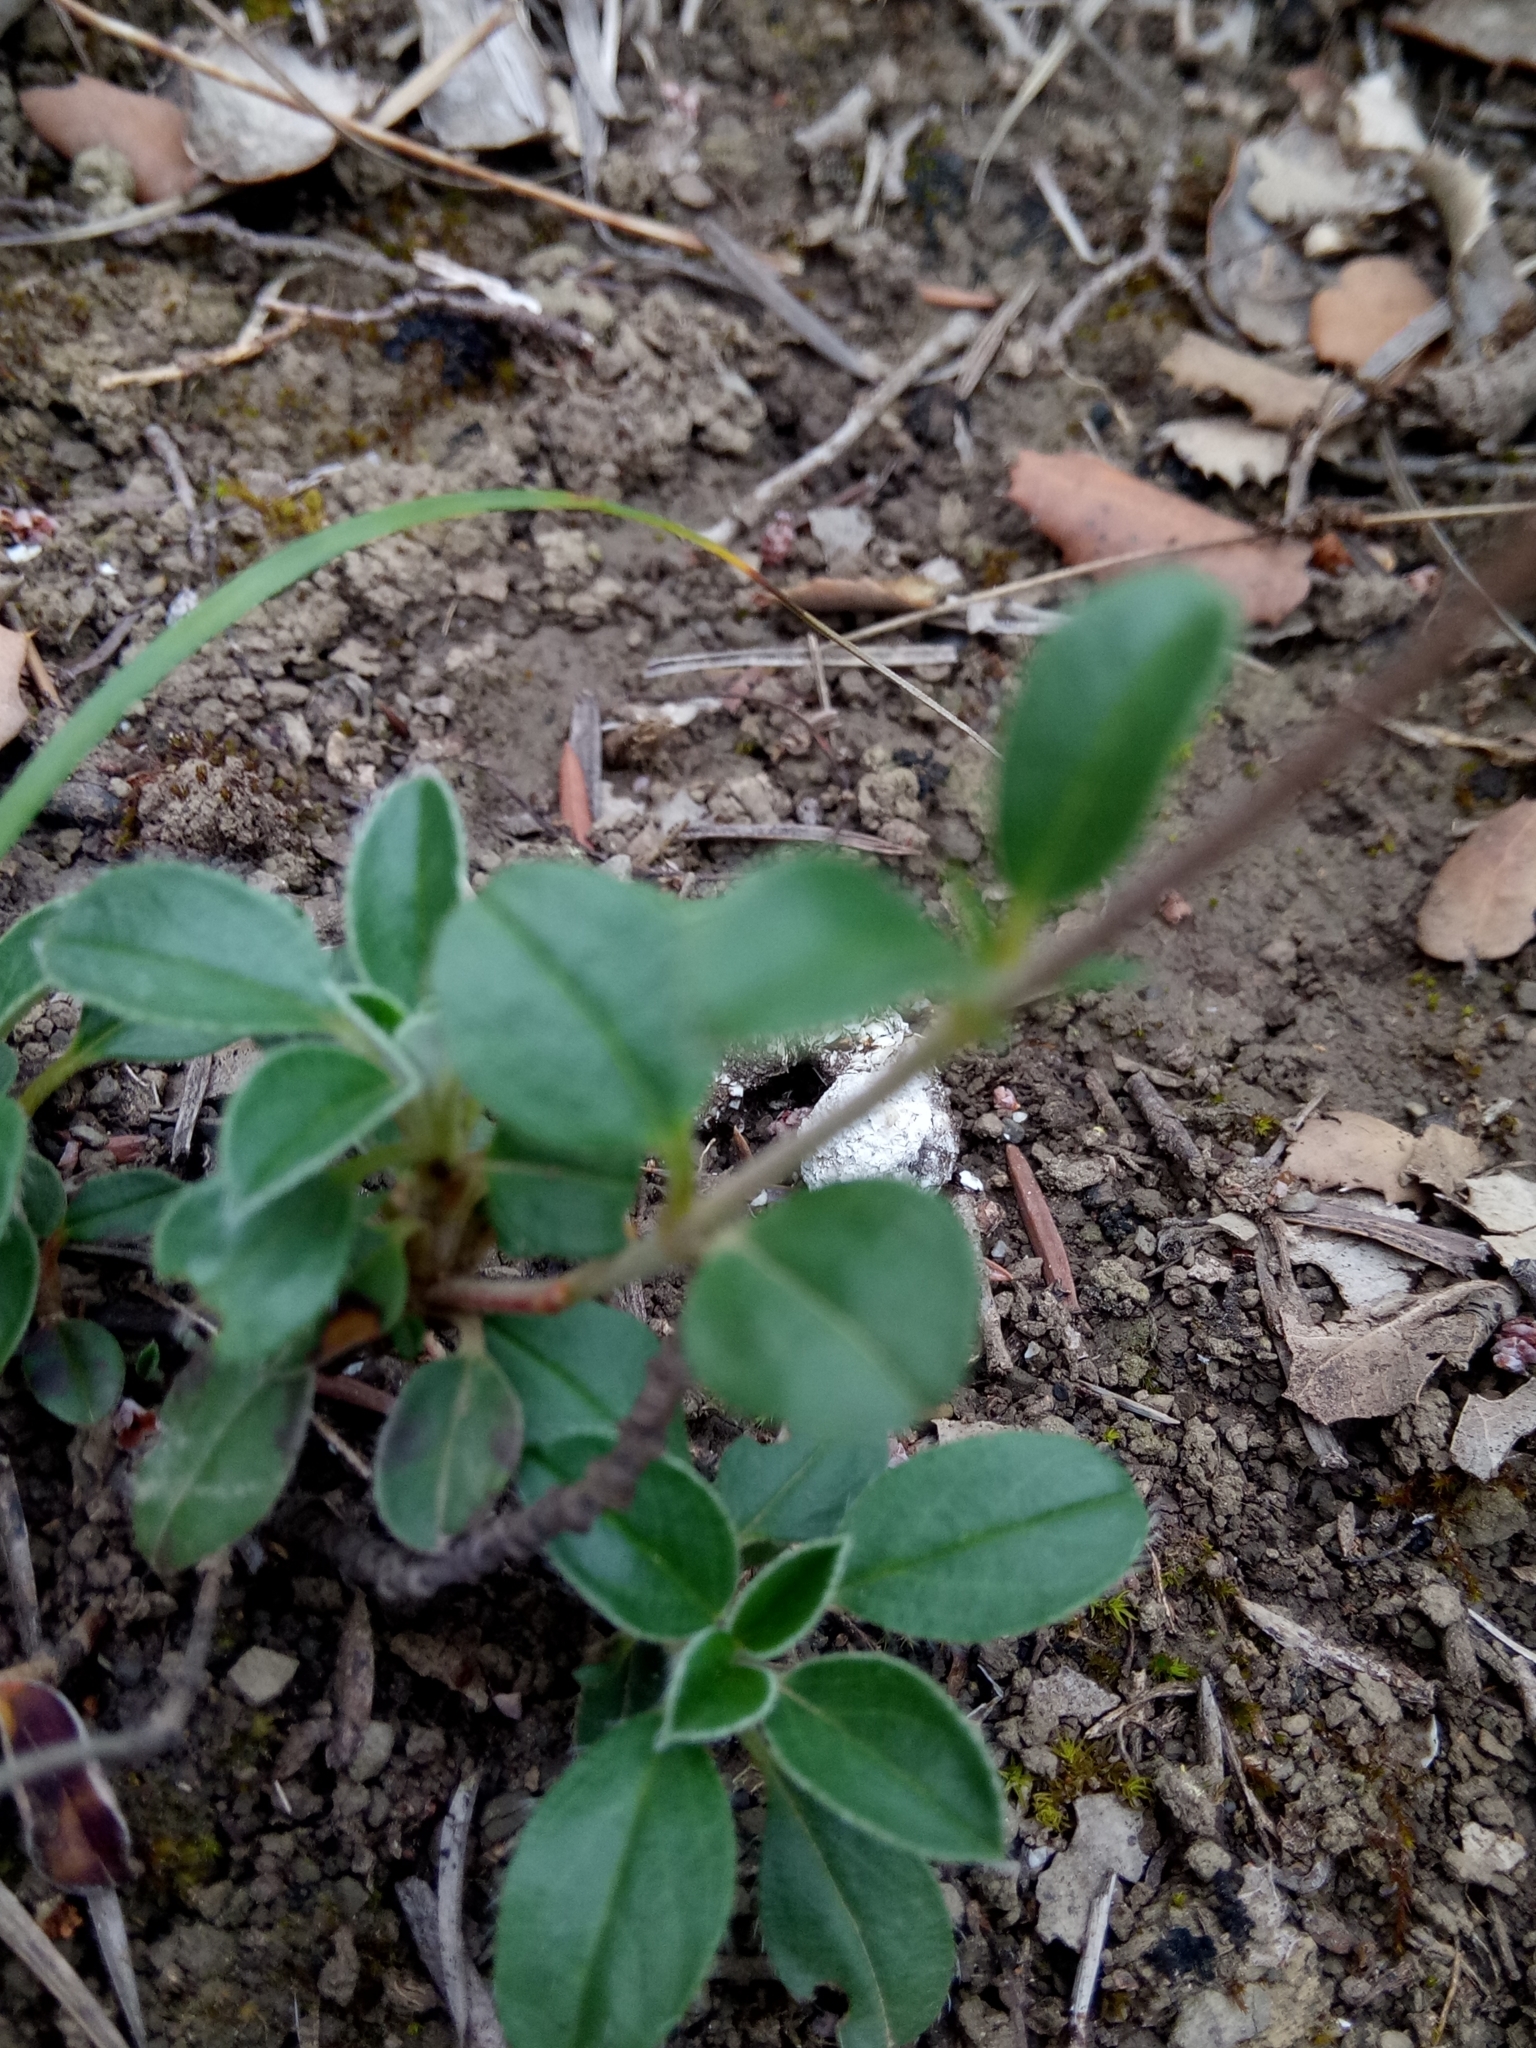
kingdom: Plantae
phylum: Tracheophyta
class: Magnoliopsida
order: Malvales
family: Cistaceae
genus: Helianthemum
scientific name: Helianthemum cinereum
